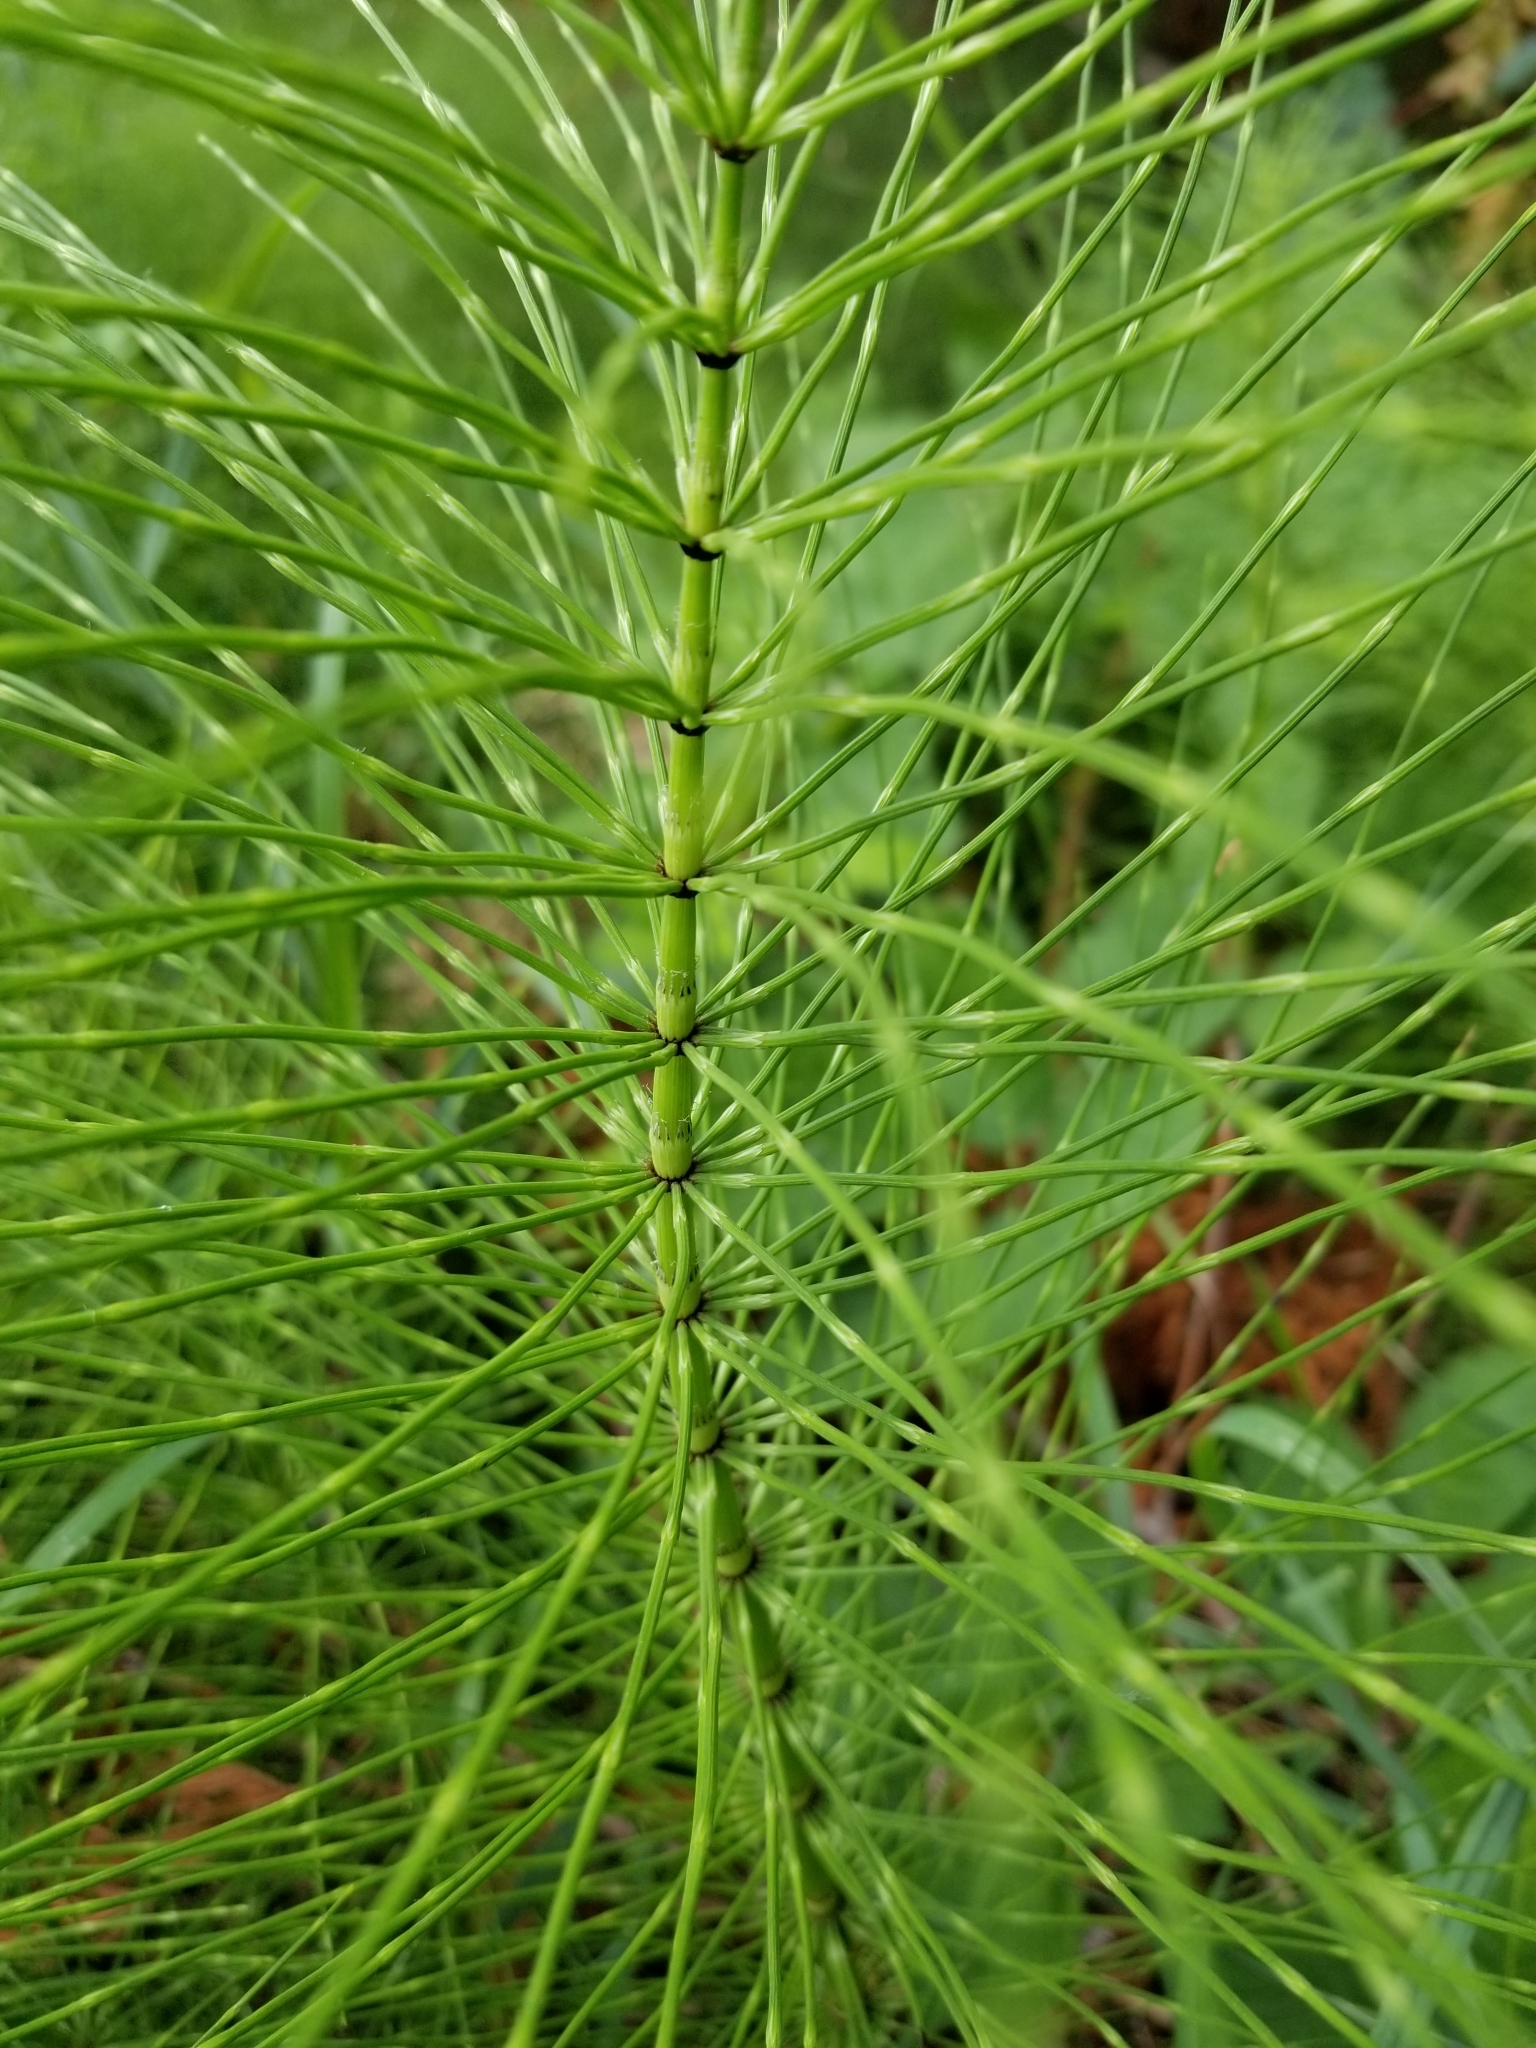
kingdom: Plantae
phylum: Tracheophyta
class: Polypodiopsida
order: Equisetales
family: Equisetaceae
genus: Equisetum
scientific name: Equisetum telmateia
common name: Great horsetail
